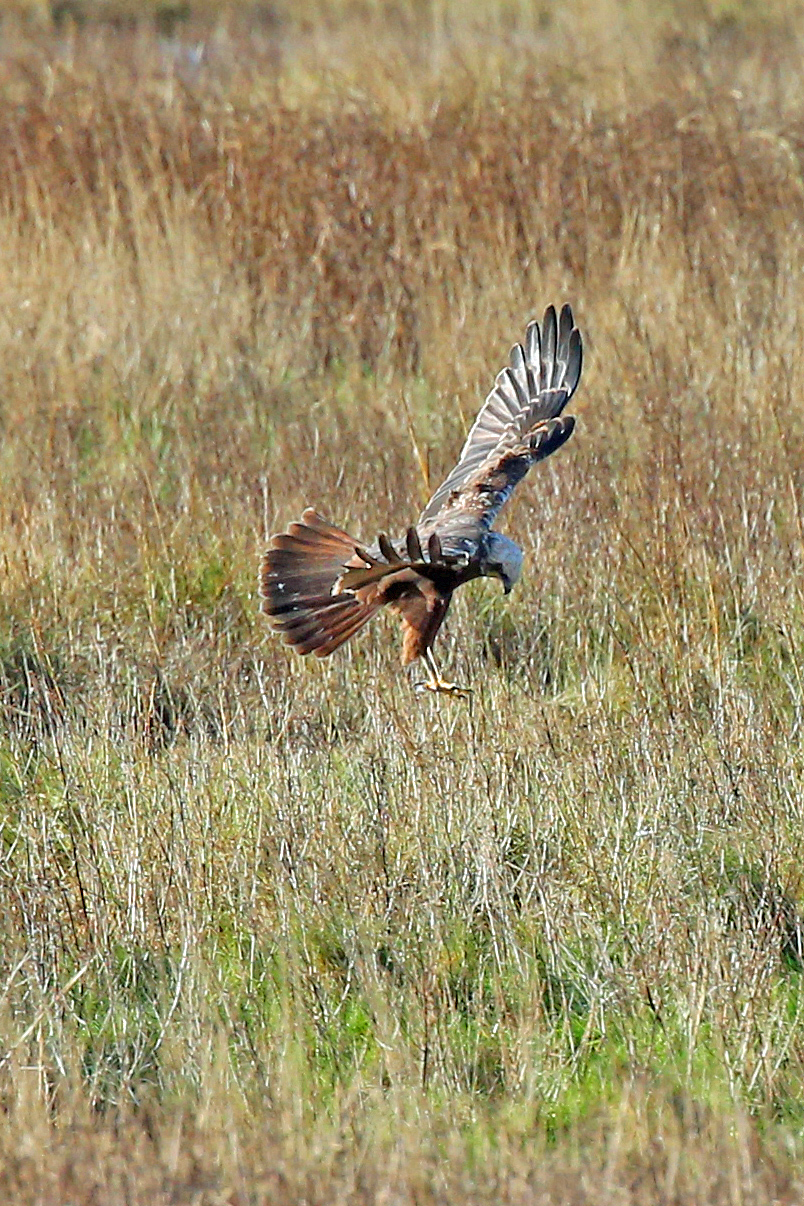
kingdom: Animalia
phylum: Chordata
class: Aves
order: Accipitriformes
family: Accipitridae
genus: Circus
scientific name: Circus aeruginosus
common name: Western marsh harrier
